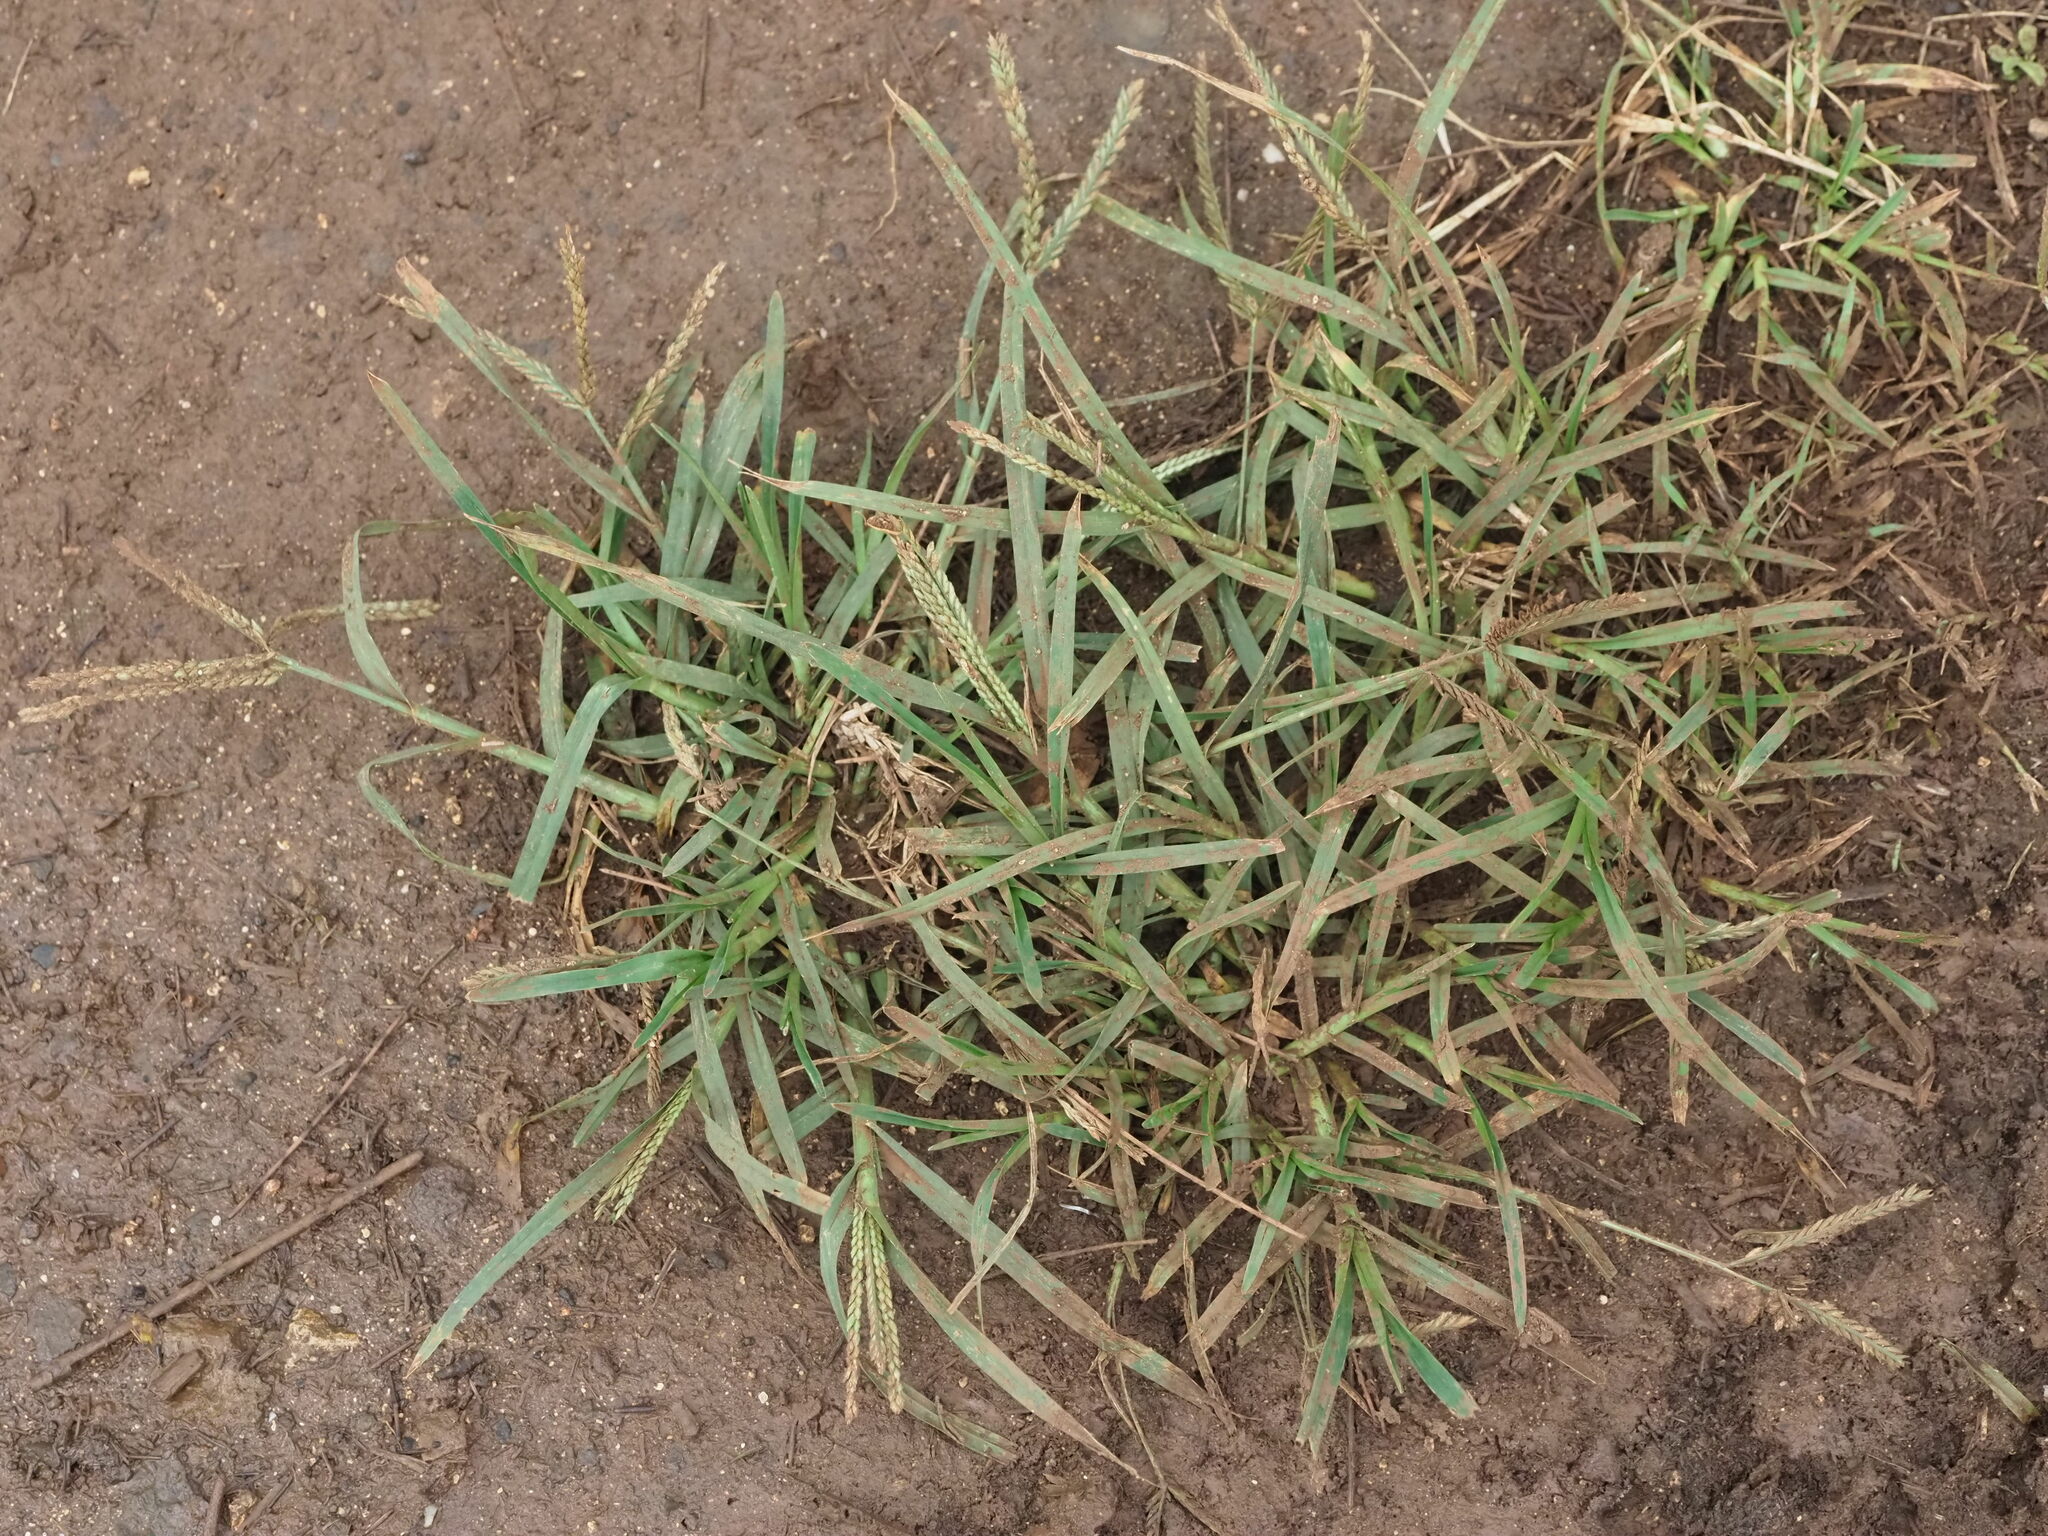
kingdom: Plantae
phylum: Tracheophyta
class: Liliopsida
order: Poales
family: Poaceae
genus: Eleusine
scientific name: Eleusine indica
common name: Yard-grass
